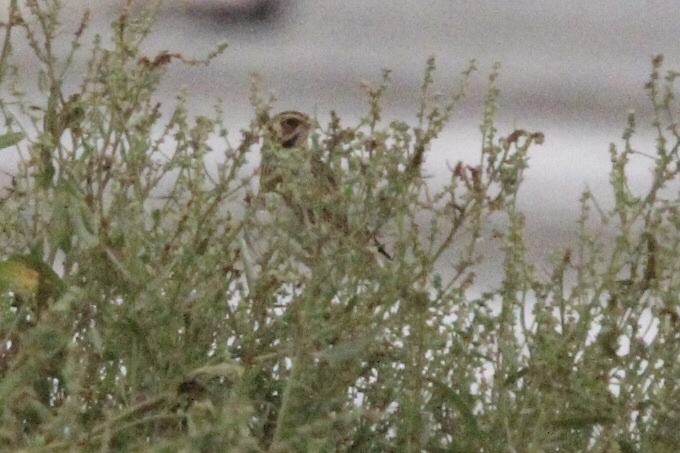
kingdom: Animalia
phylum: Chordata
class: Aves
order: Passeriformes
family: Passerellidae
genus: Passerculus
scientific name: Passerculus sandwichensis
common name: Savannah sparrow
